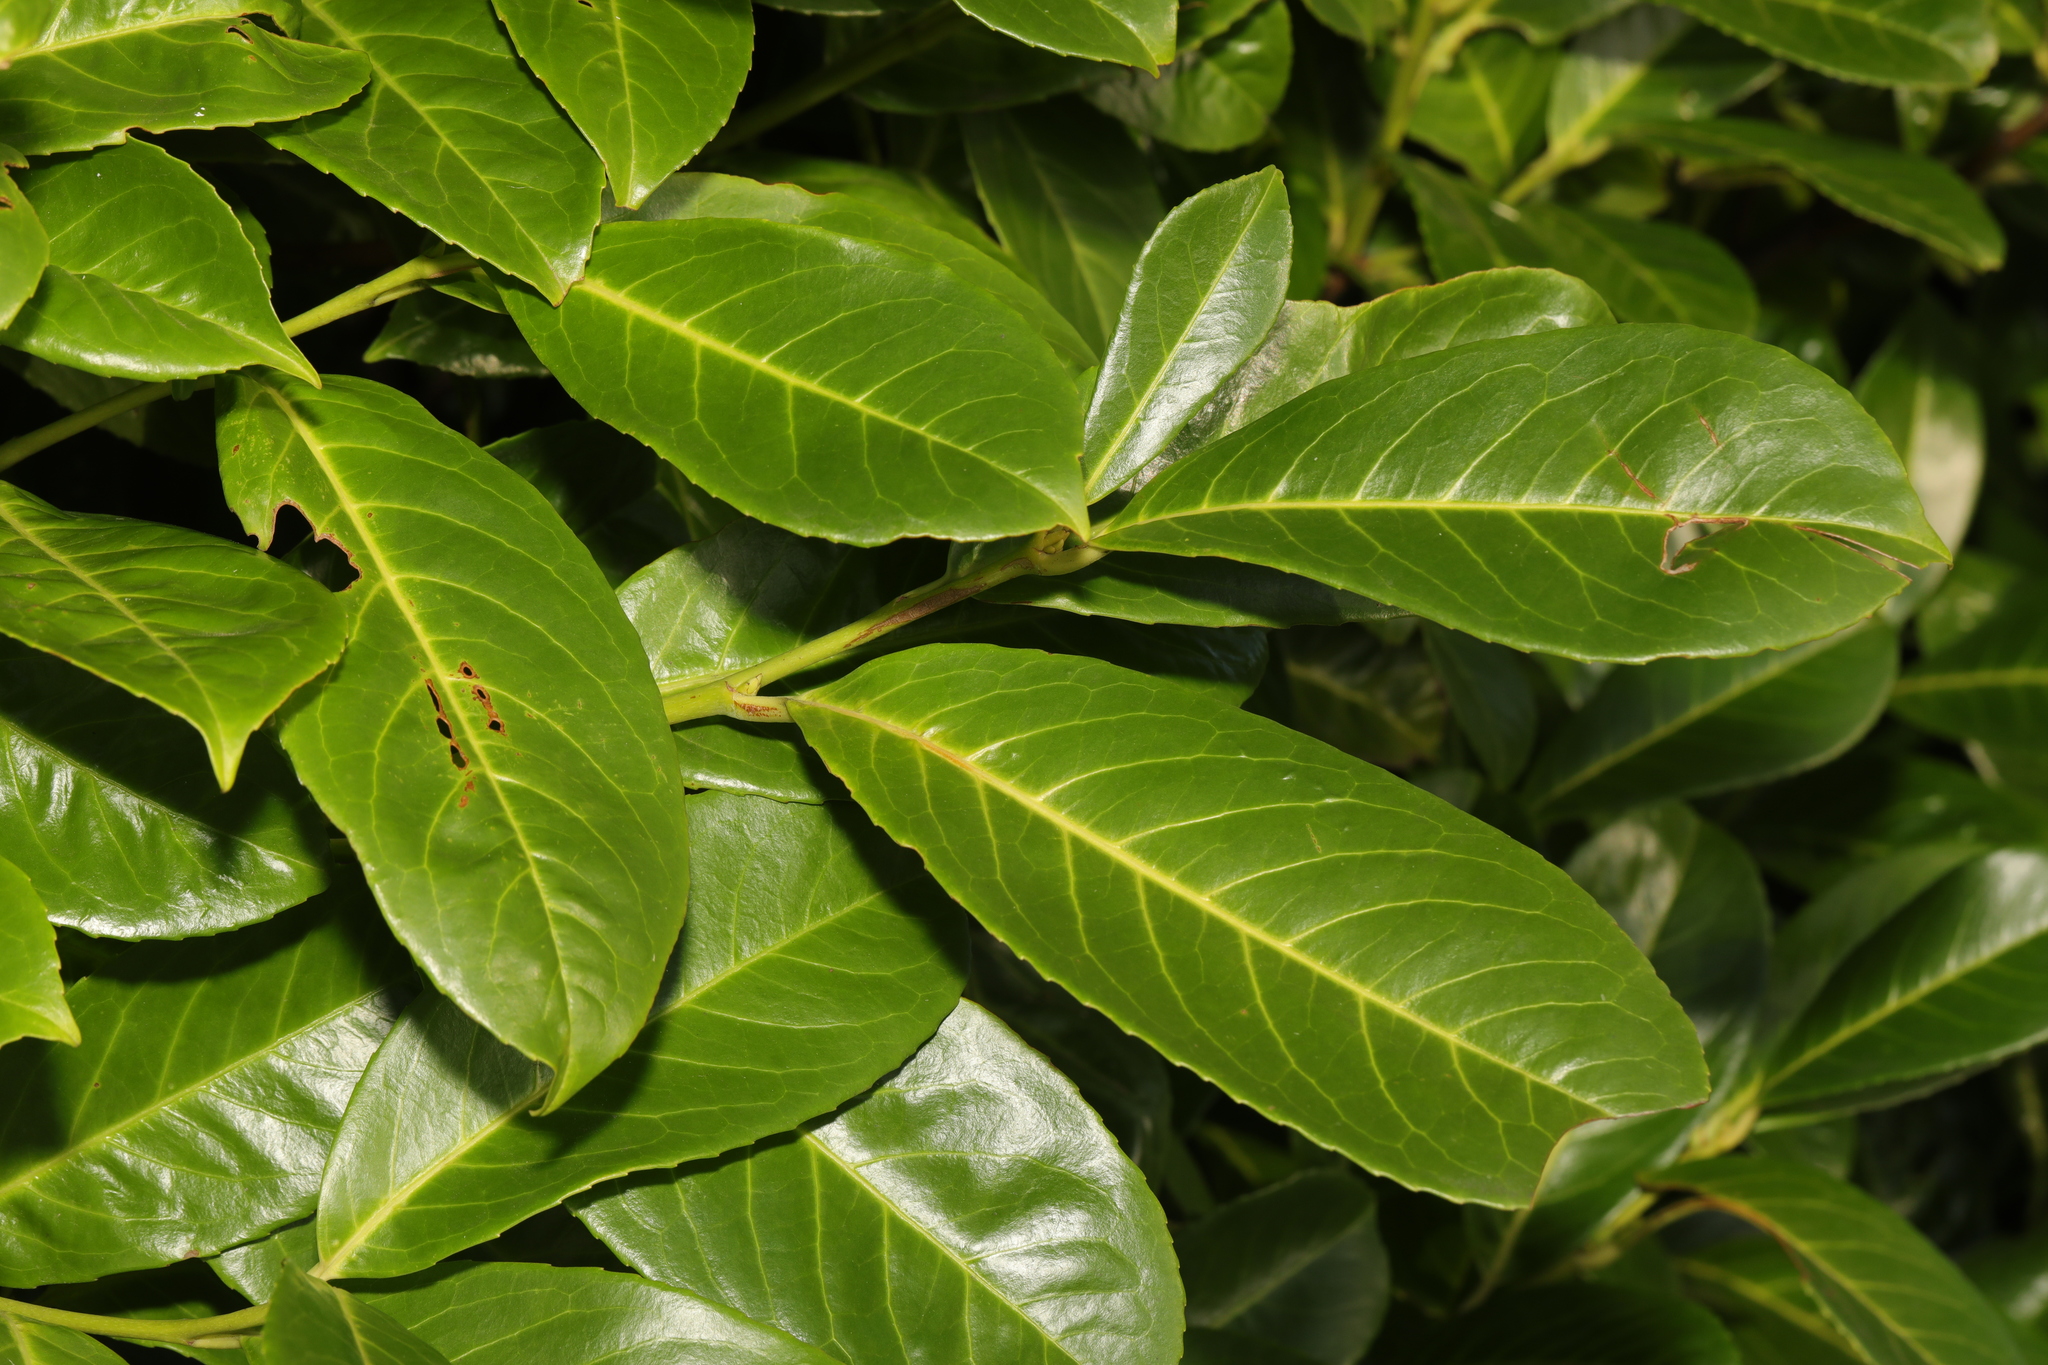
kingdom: Plantae
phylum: Tracheophyta
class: Magnoliopsida
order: Rosales
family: Rosaceae
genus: Prunus
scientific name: Prunus laurocerasus
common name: Cherry laurel
